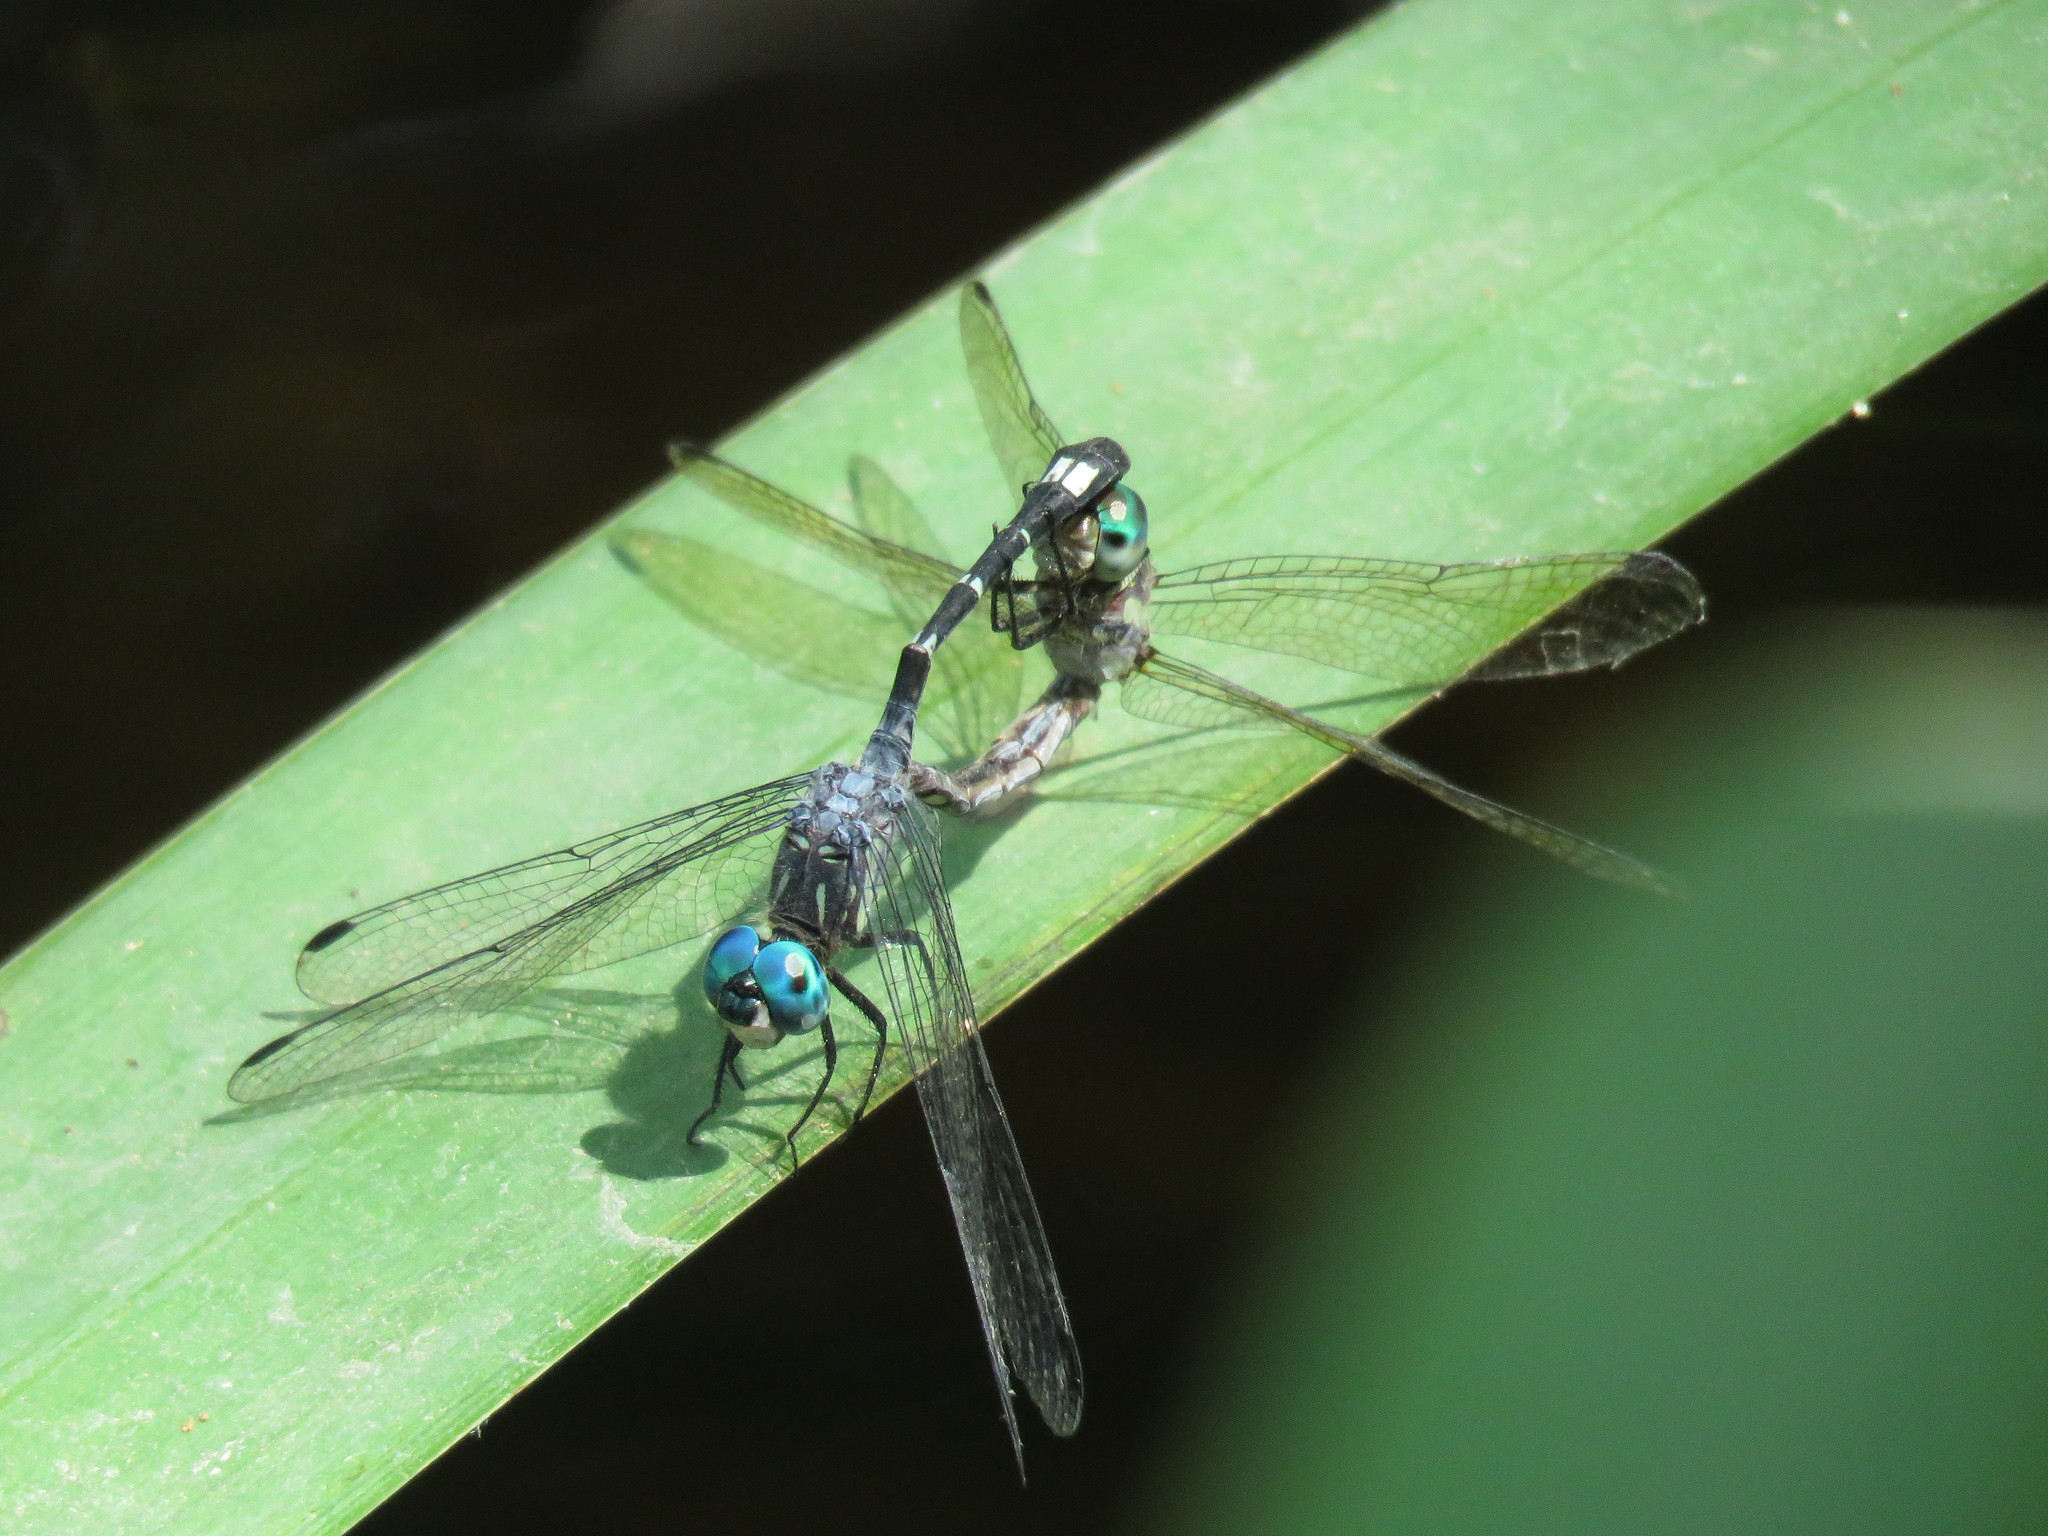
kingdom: Animalia
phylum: Arthropoda
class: Insecta
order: Odonata
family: Libellulidae
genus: Micrathyria
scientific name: Micrathyria hypodidyma
